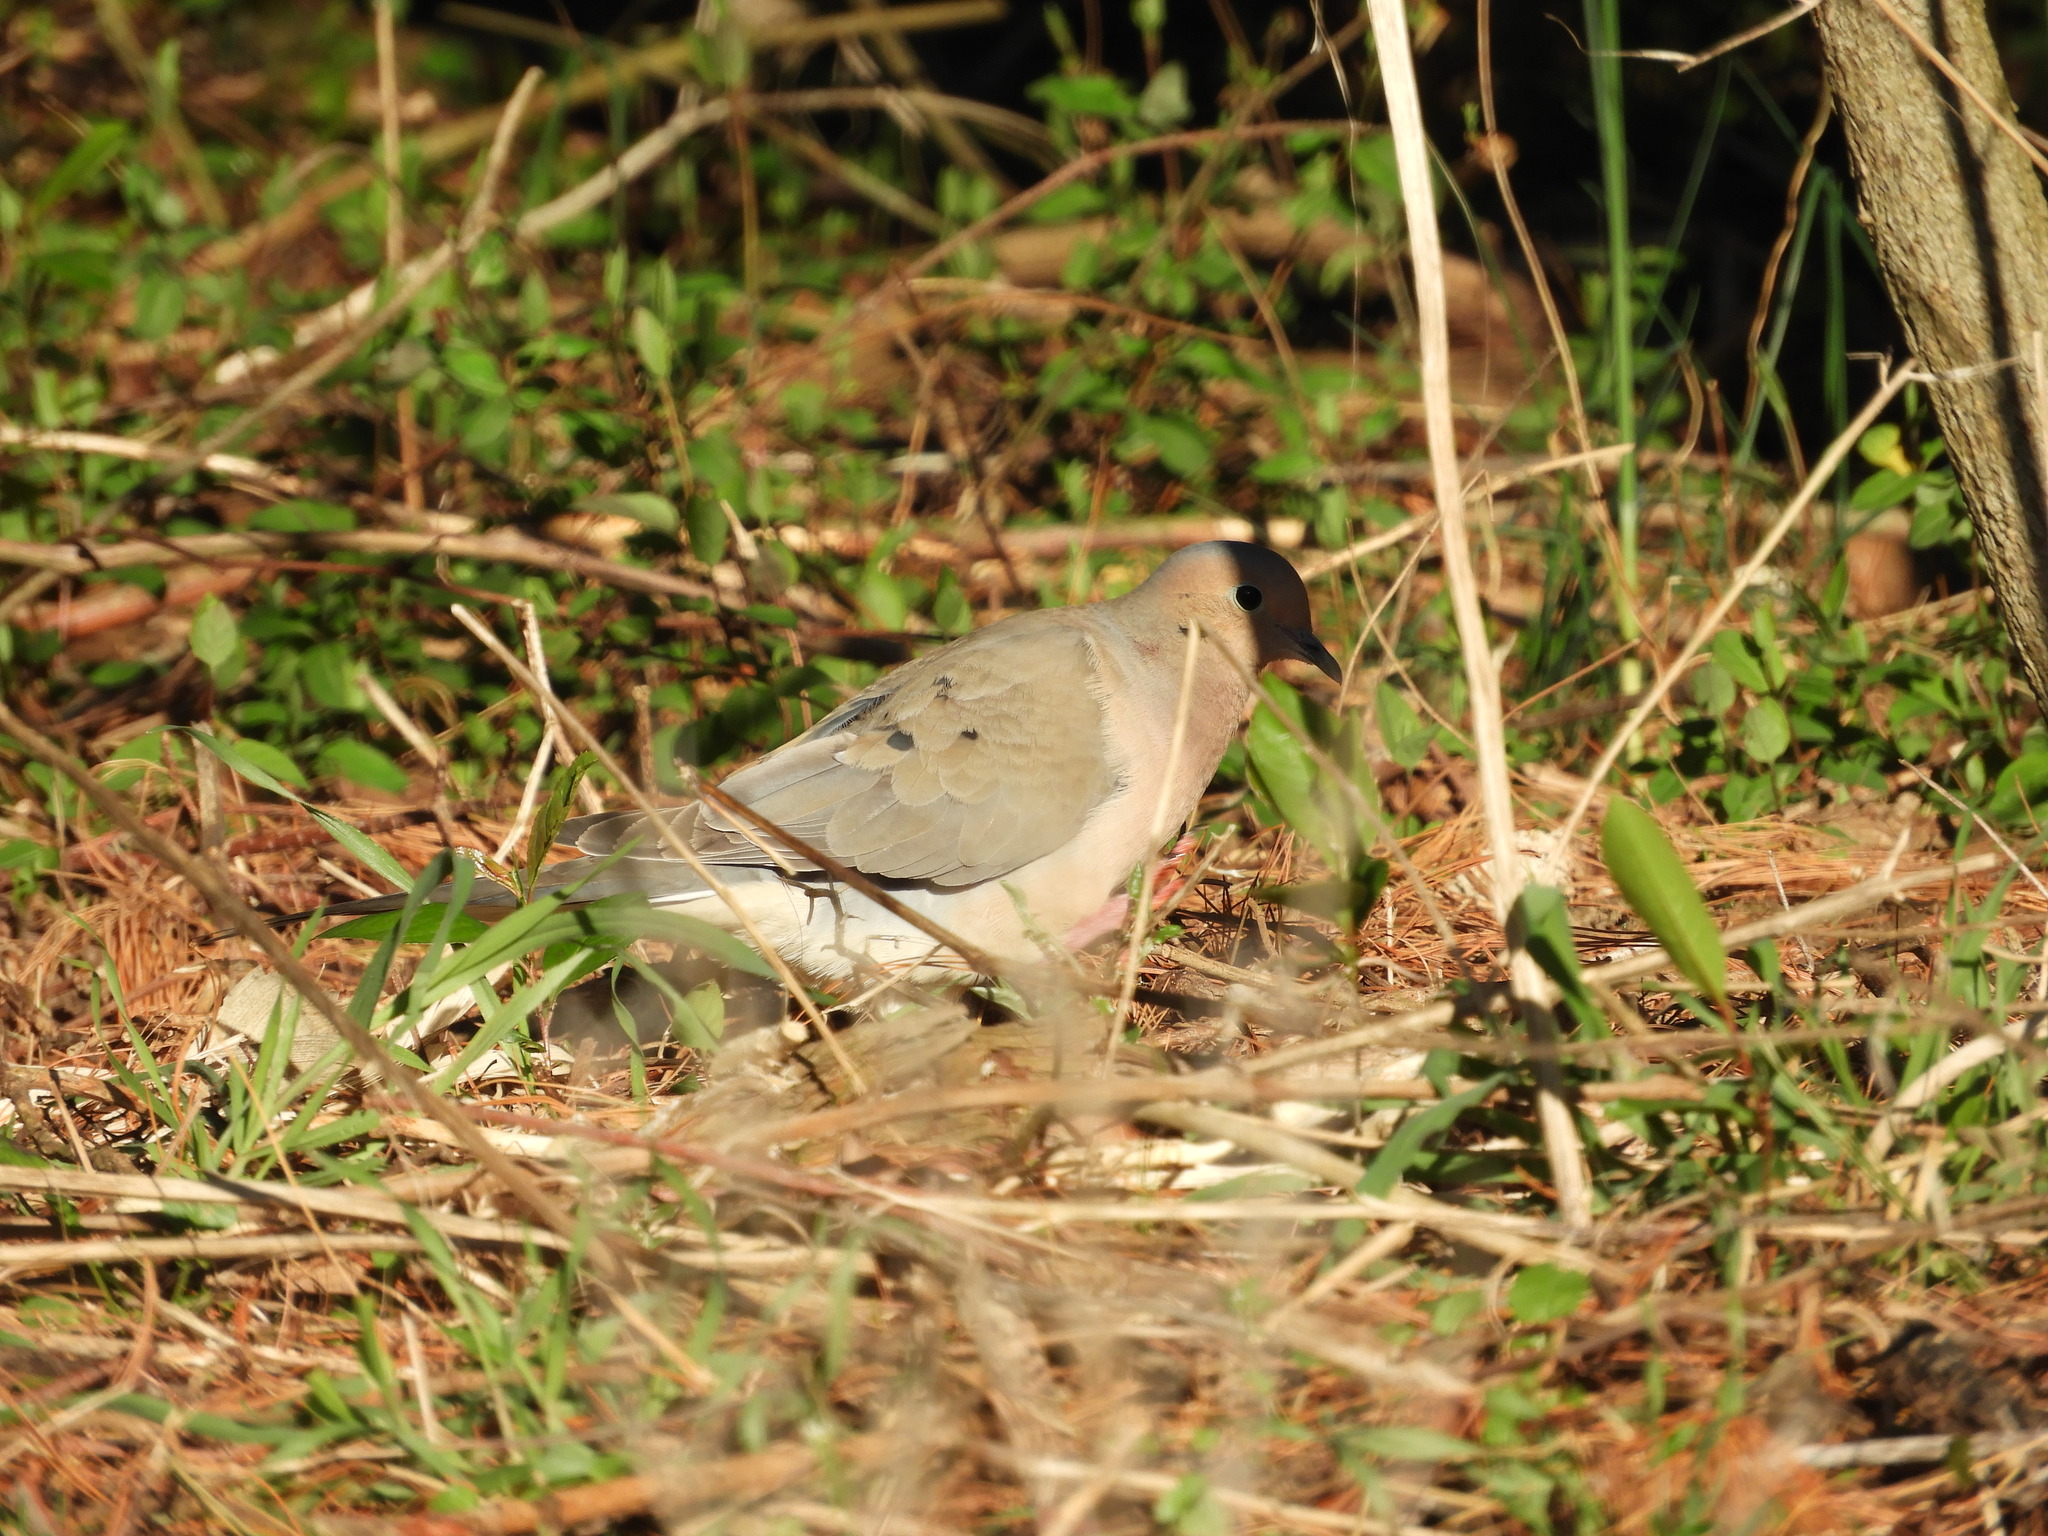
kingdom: Animalia
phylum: Chordata
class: Aves
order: Columbiformes
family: Columbidae
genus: Zenaida
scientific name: Zenaida macroura
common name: Mourning dove
